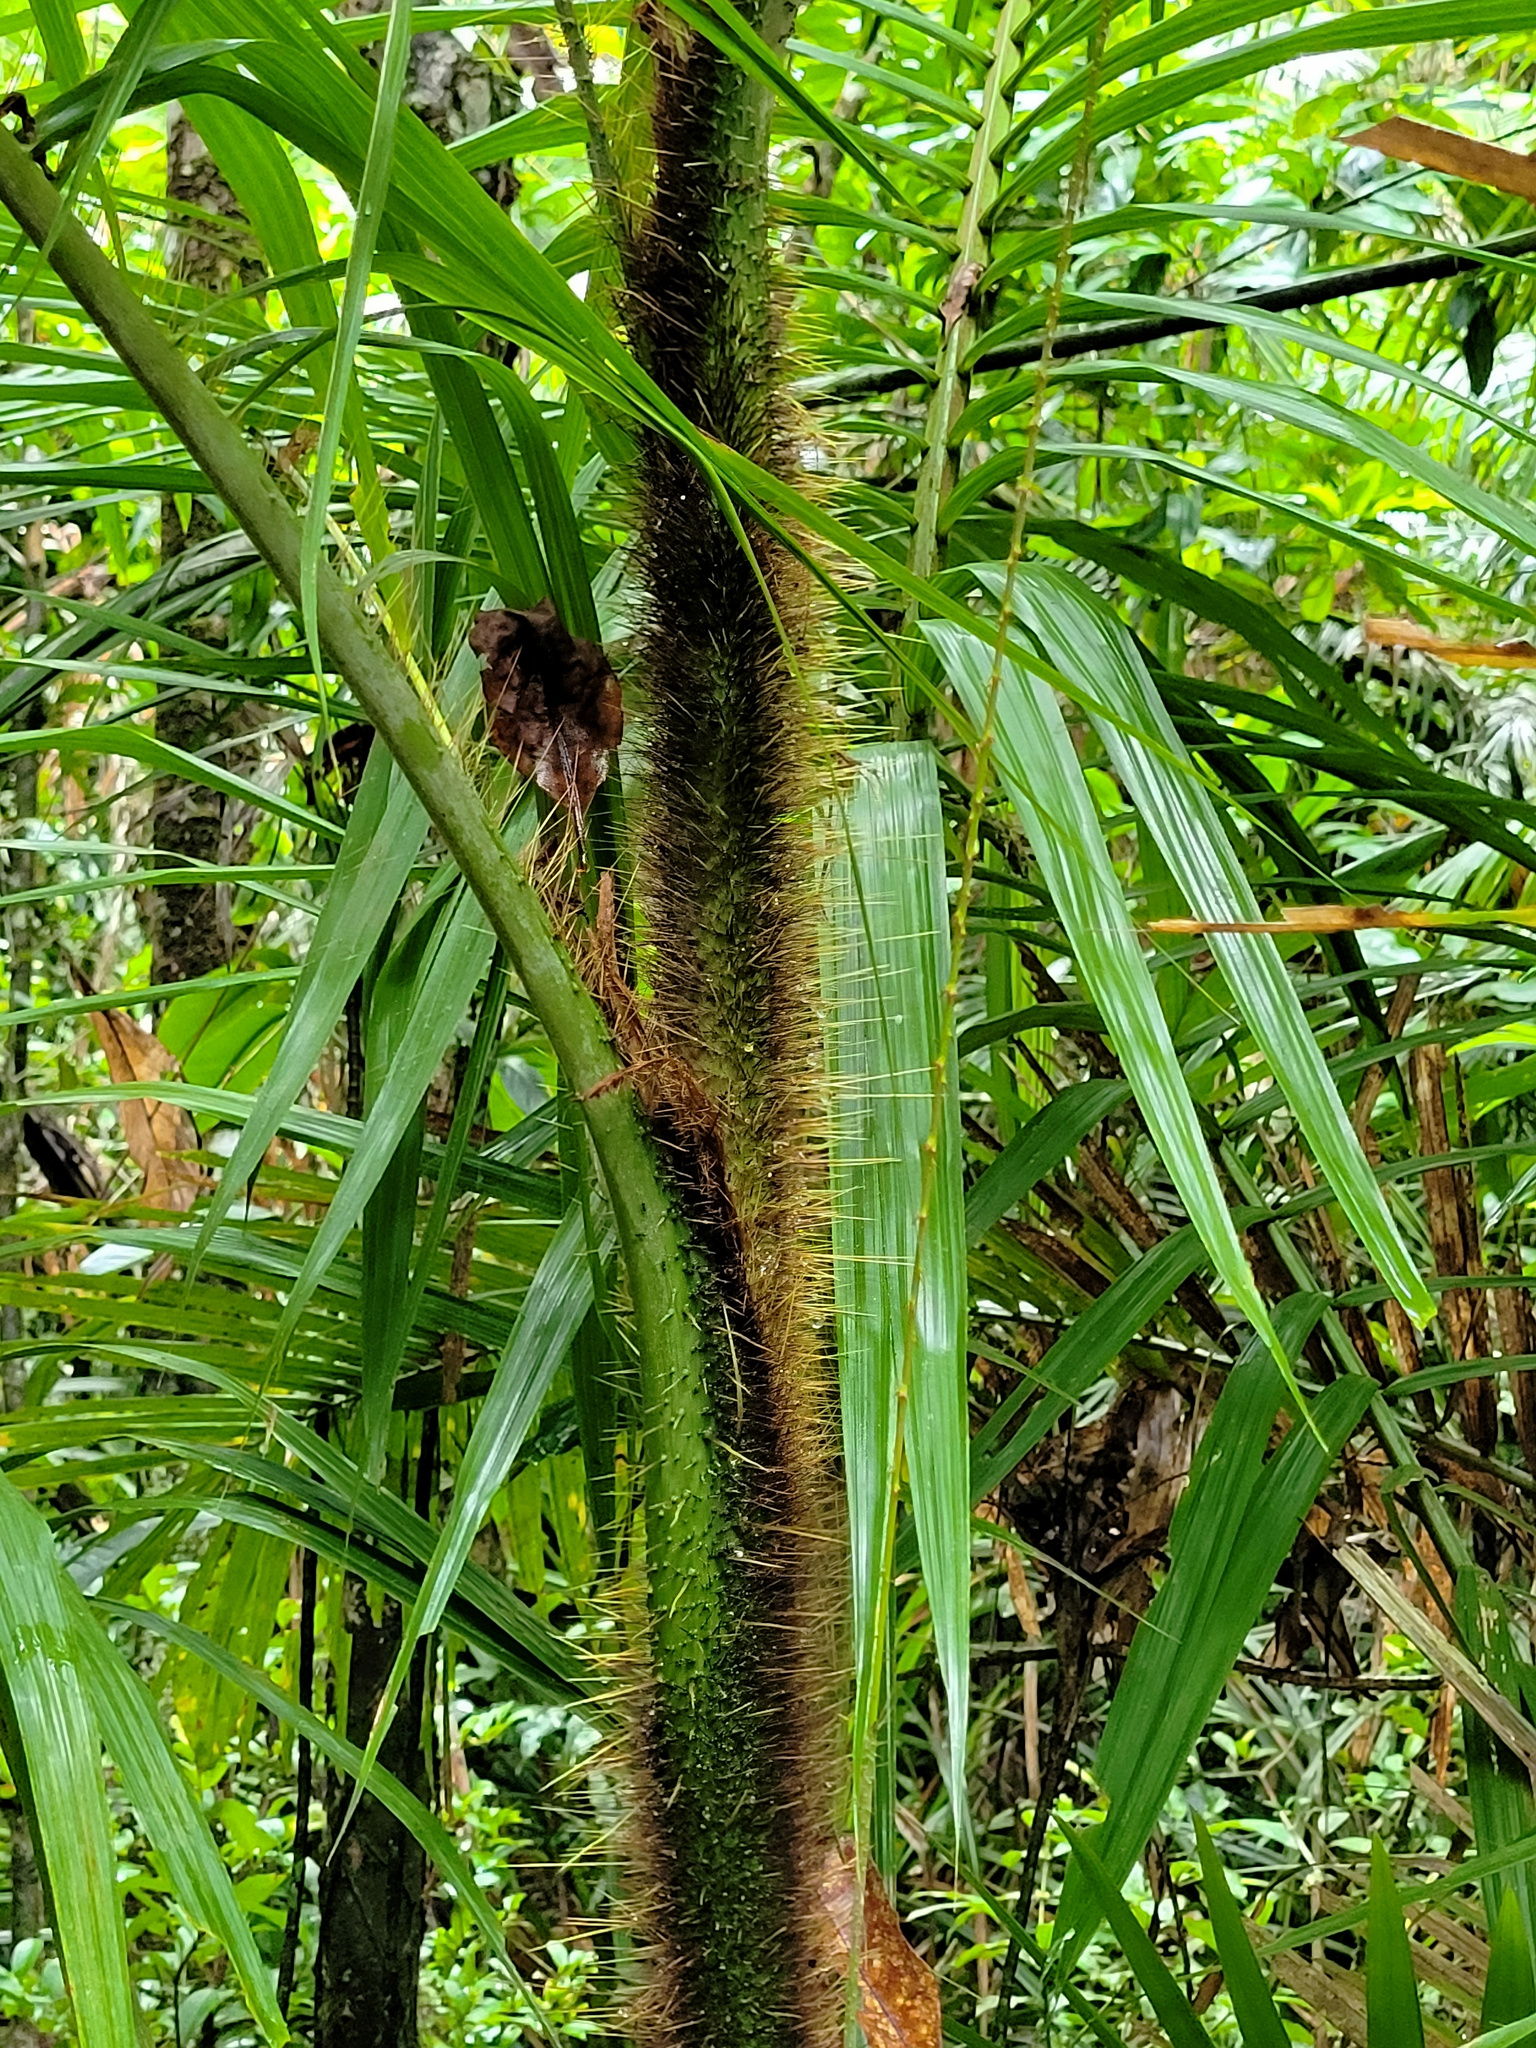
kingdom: Plantae
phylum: Tracheophyta
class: Liliopsida
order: Arecales
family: Arecaceae
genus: Calamus
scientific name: Calamus australis
